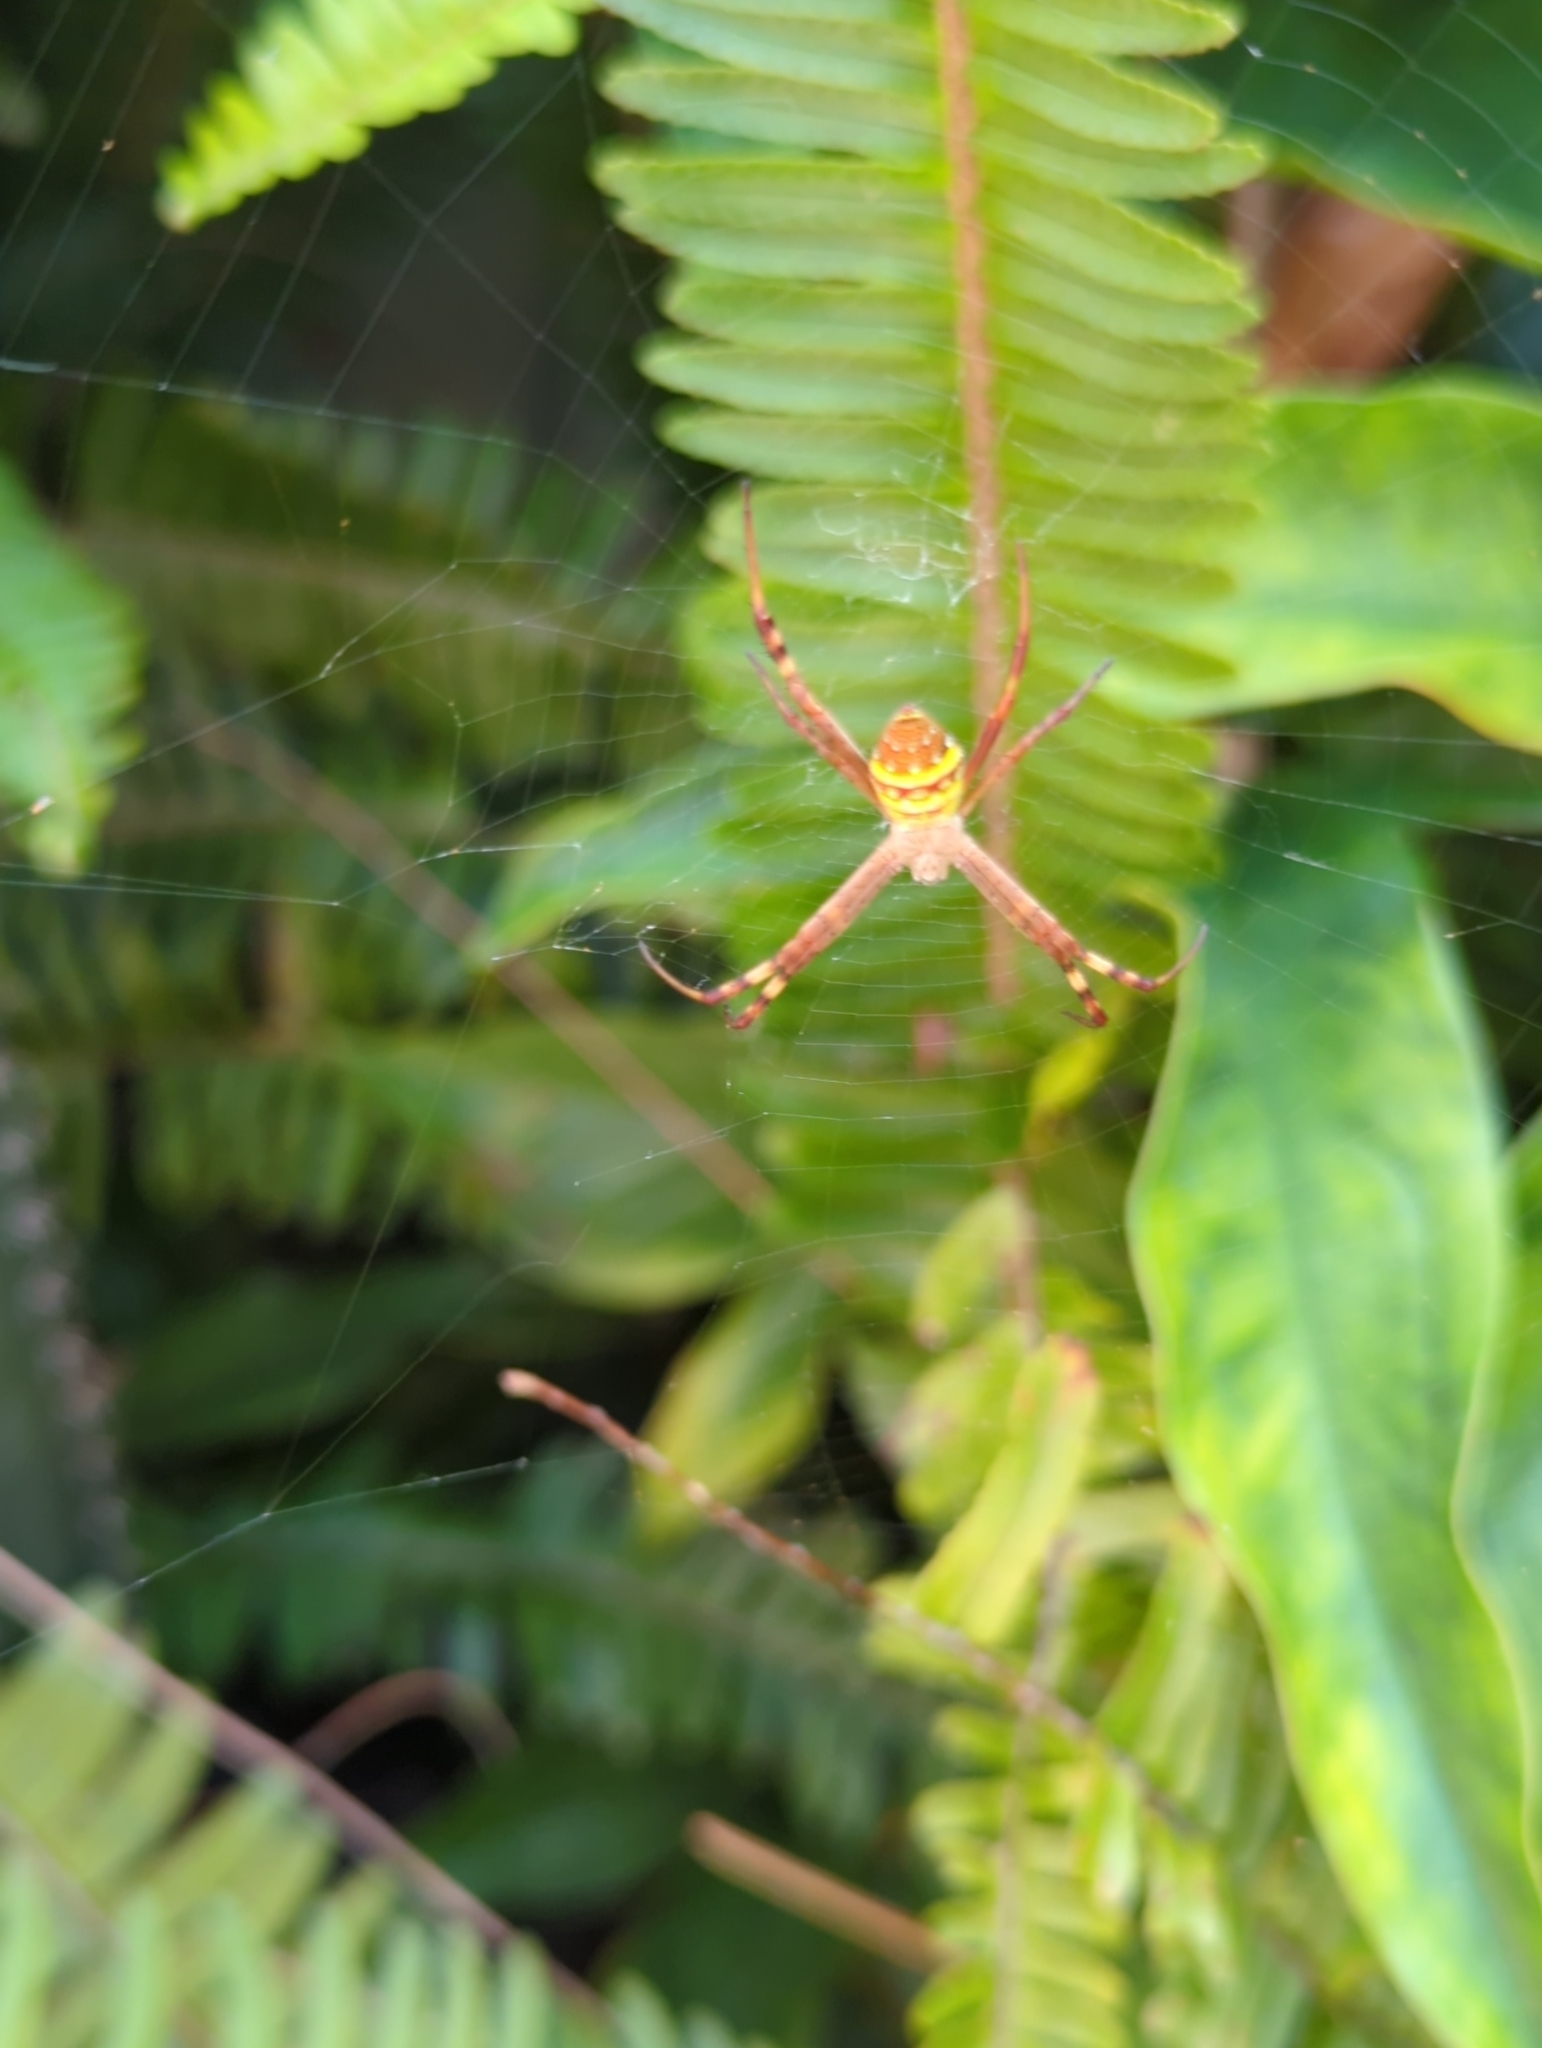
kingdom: Animalia
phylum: Arthropoda
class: Arachnida
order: Araneae
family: Araneidae
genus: Argiope
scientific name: Argiope keyserlingi
